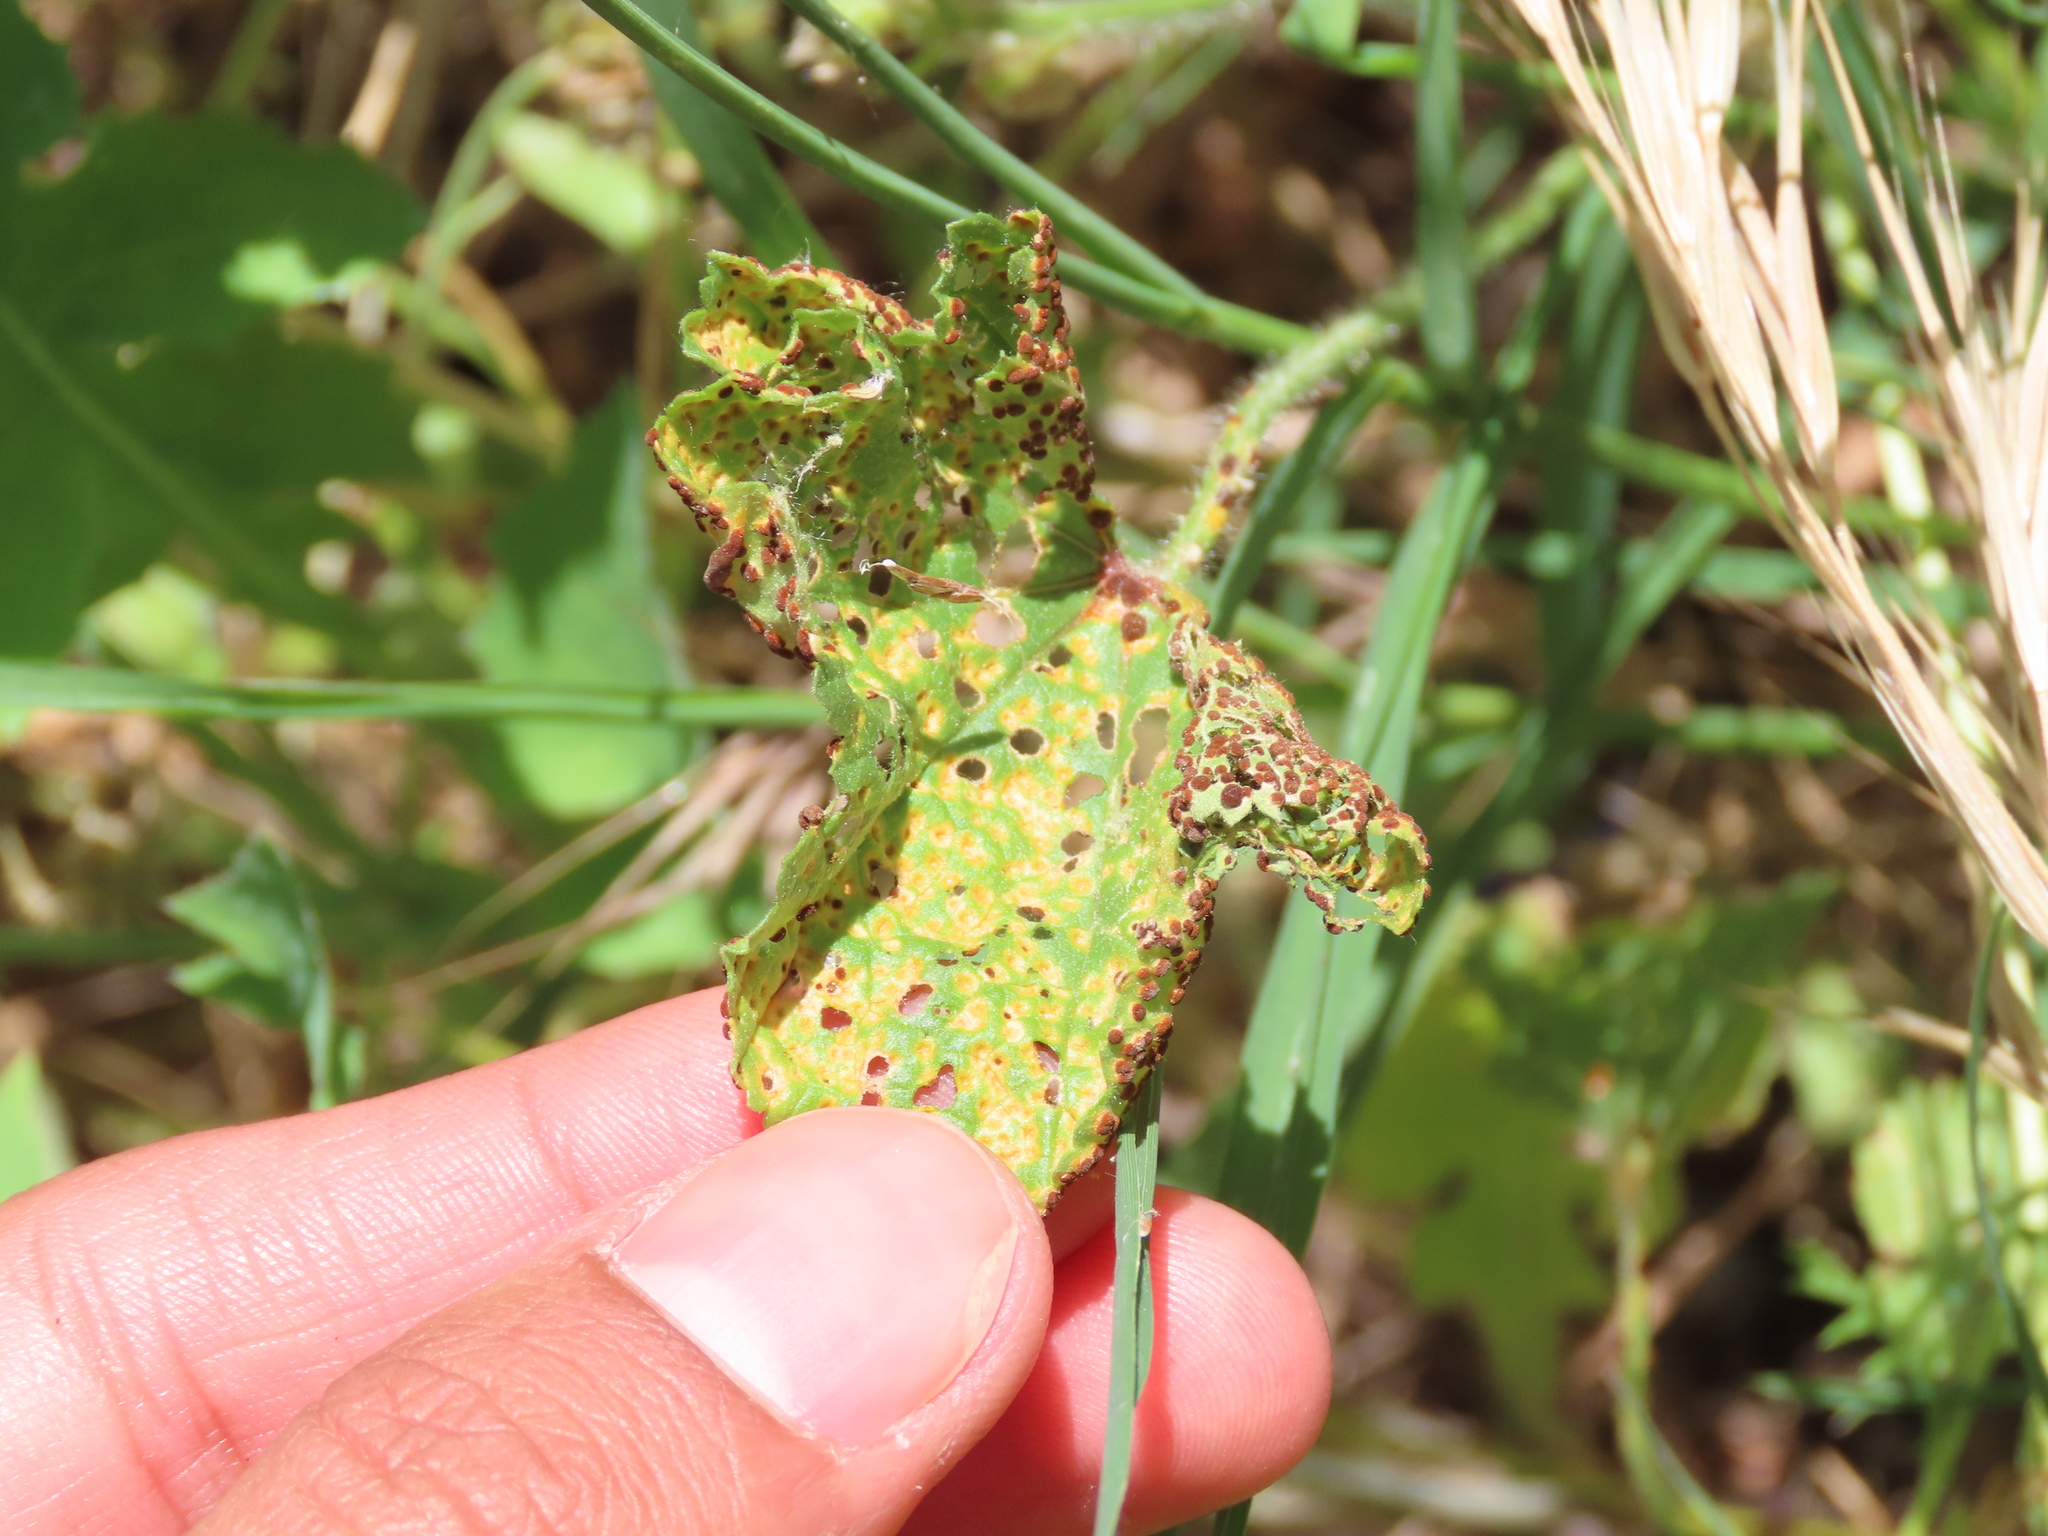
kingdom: Fungi
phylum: Basidiomycota
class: Pucciniomycetes
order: Pucciniales
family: Pucciniaceae
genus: Puccinia
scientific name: Puccinia malvacearum
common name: Hollyhock rust
